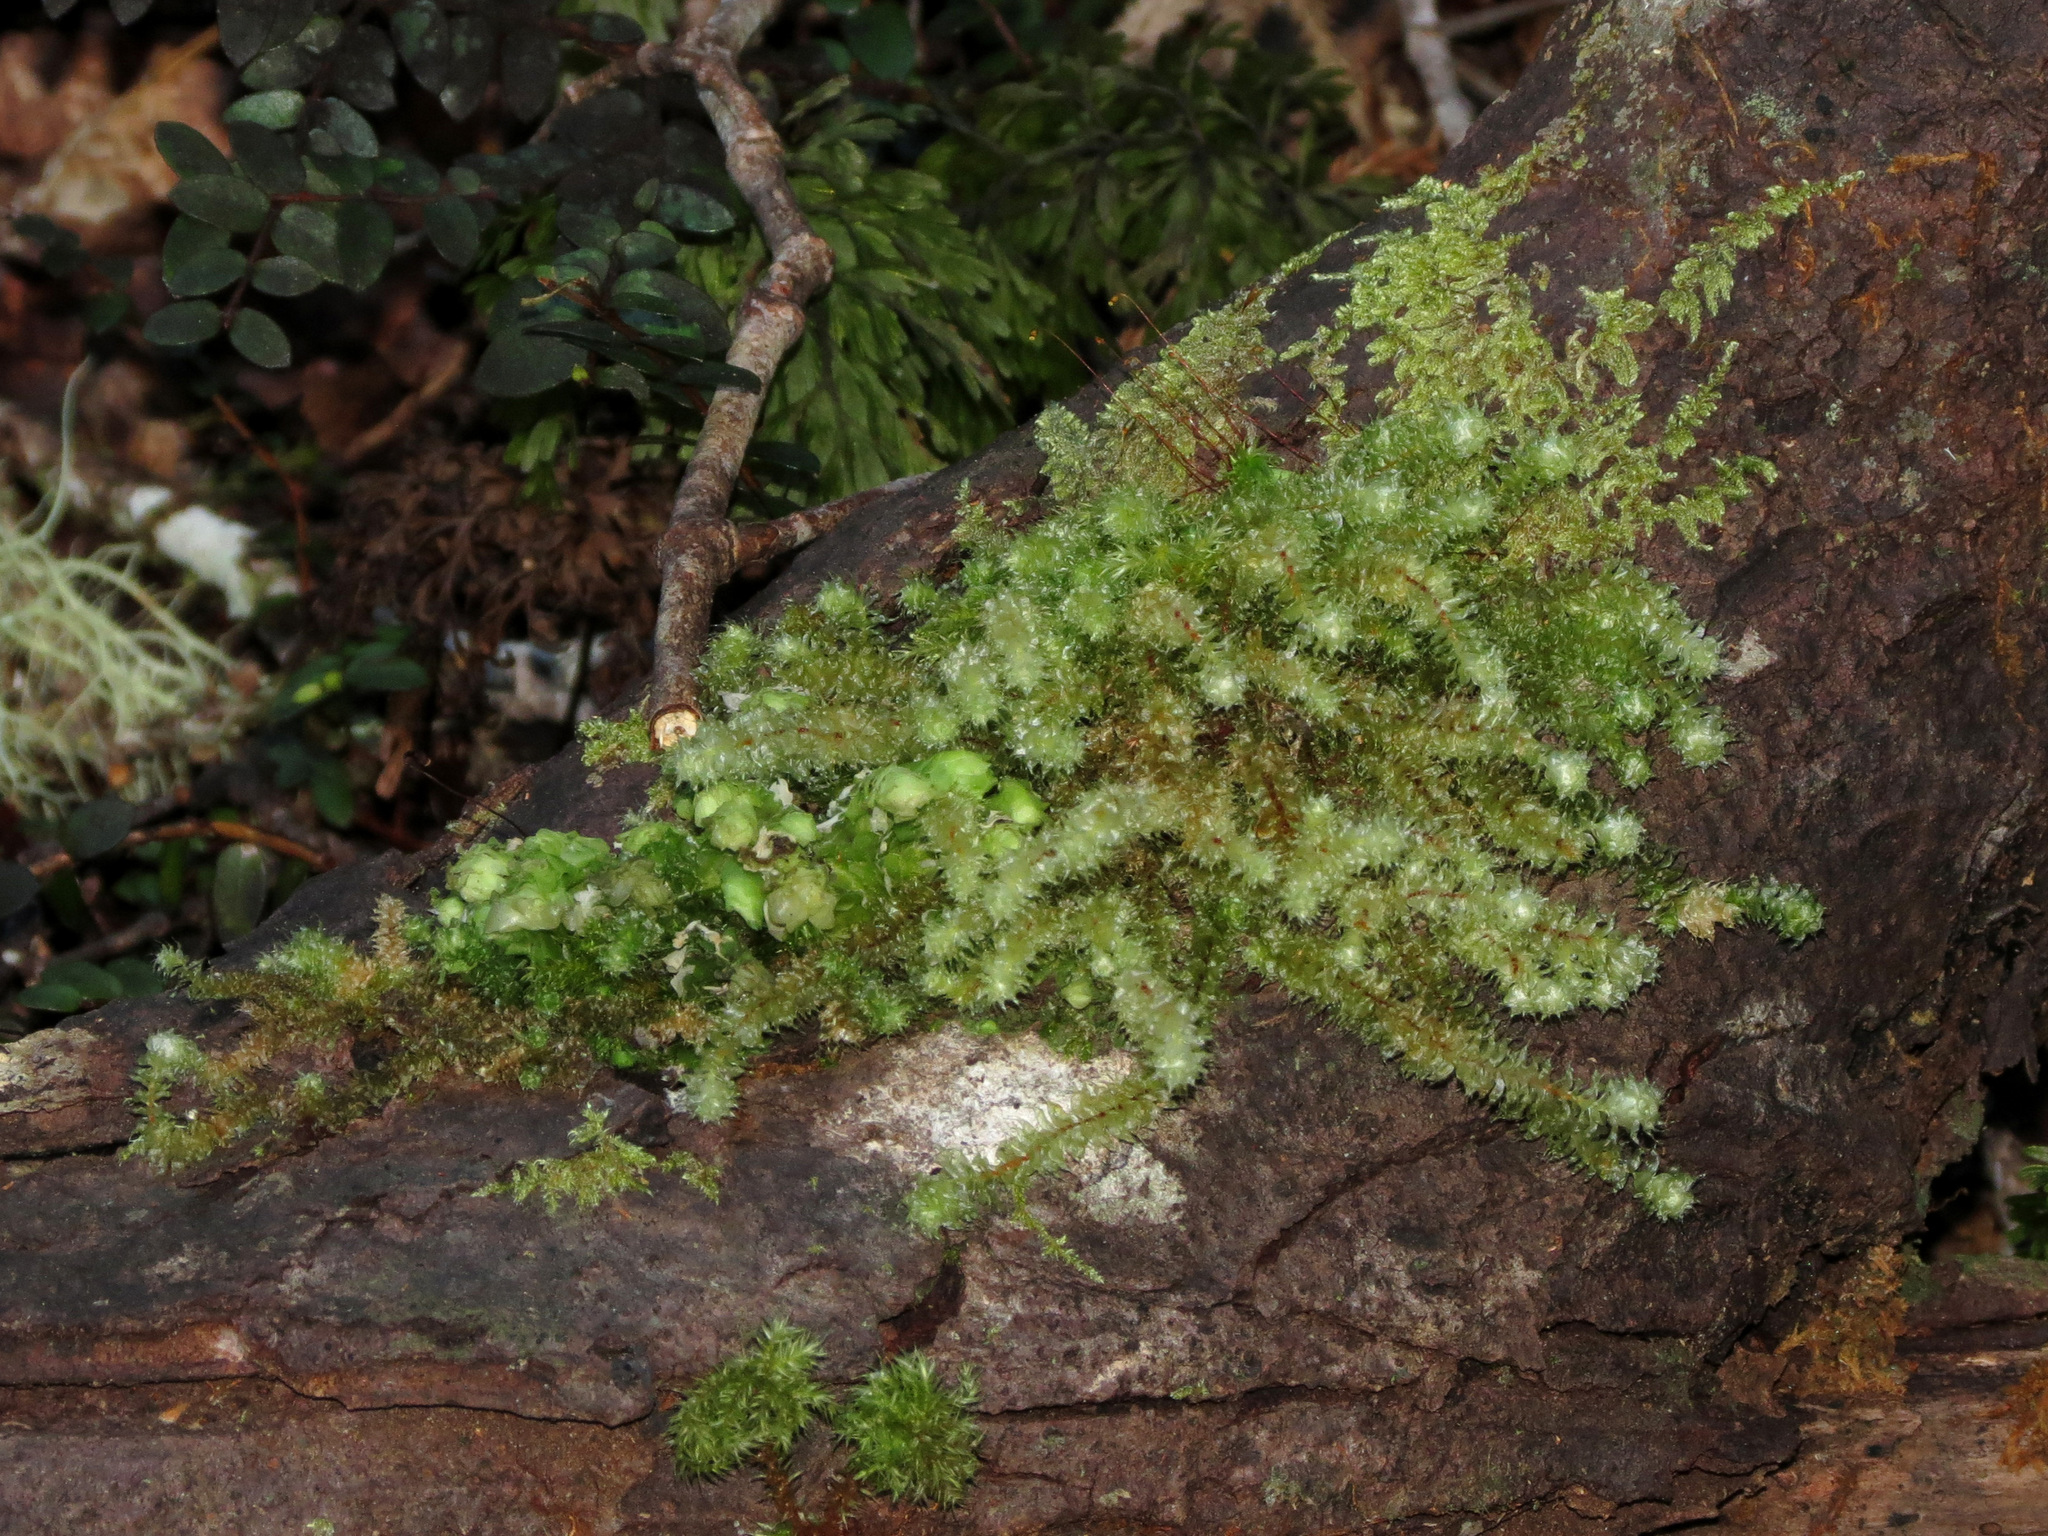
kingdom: Plantae
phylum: Bryophyta
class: Bryopsida
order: Ptychomniales
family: Ptychomniaceae
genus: Ptychomnion
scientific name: Ptychomnion aciculare
